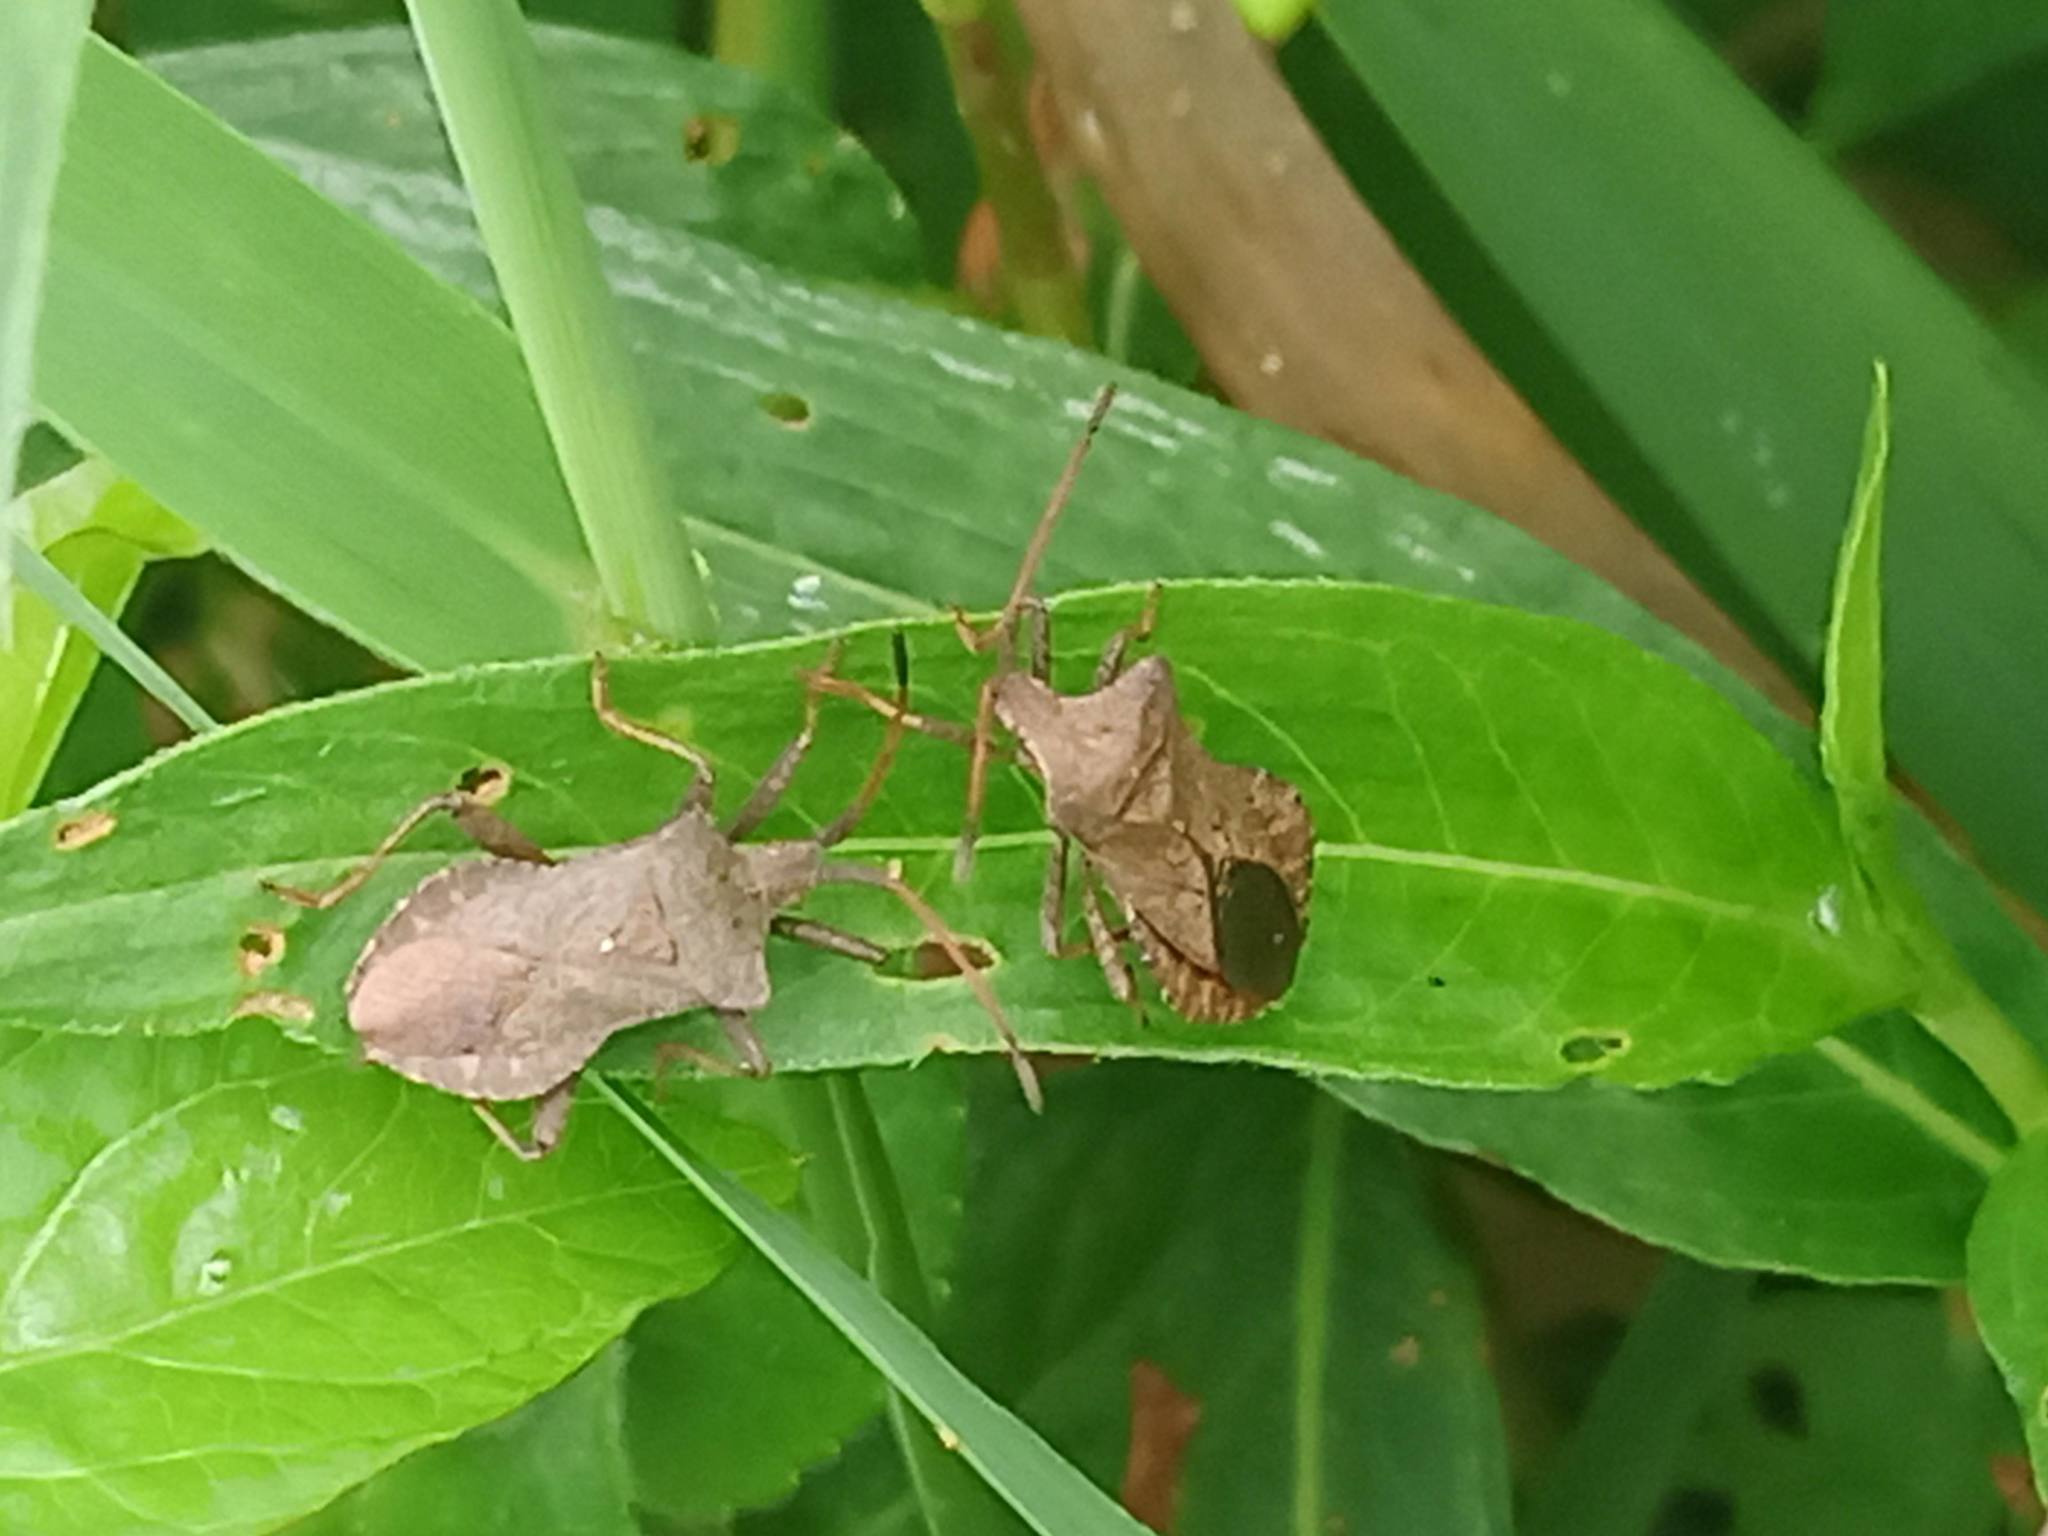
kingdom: Animalia
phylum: Arthropoda
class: Insecta
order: Hemiptera
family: Coreidae
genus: Coreus
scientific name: Coreus marginatus
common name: Dock bug
